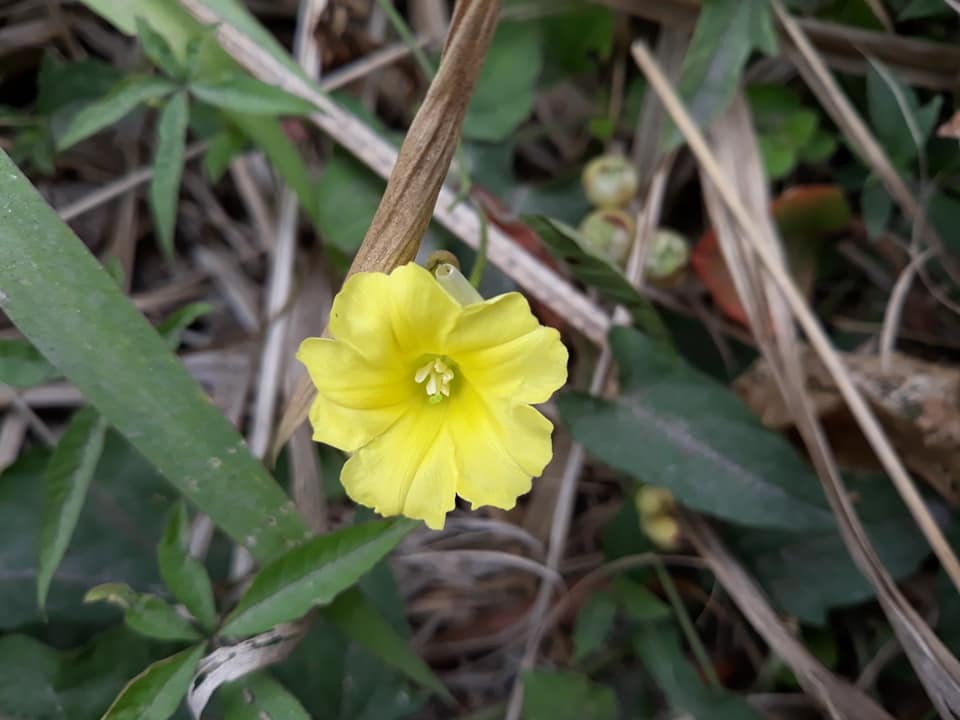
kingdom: Plantae
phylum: Tracheophyta
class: Magnoliopsida
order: Solanales
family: Convolvulaceae
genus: Camonea
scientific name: Camonea umbellata
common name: Hogvine
